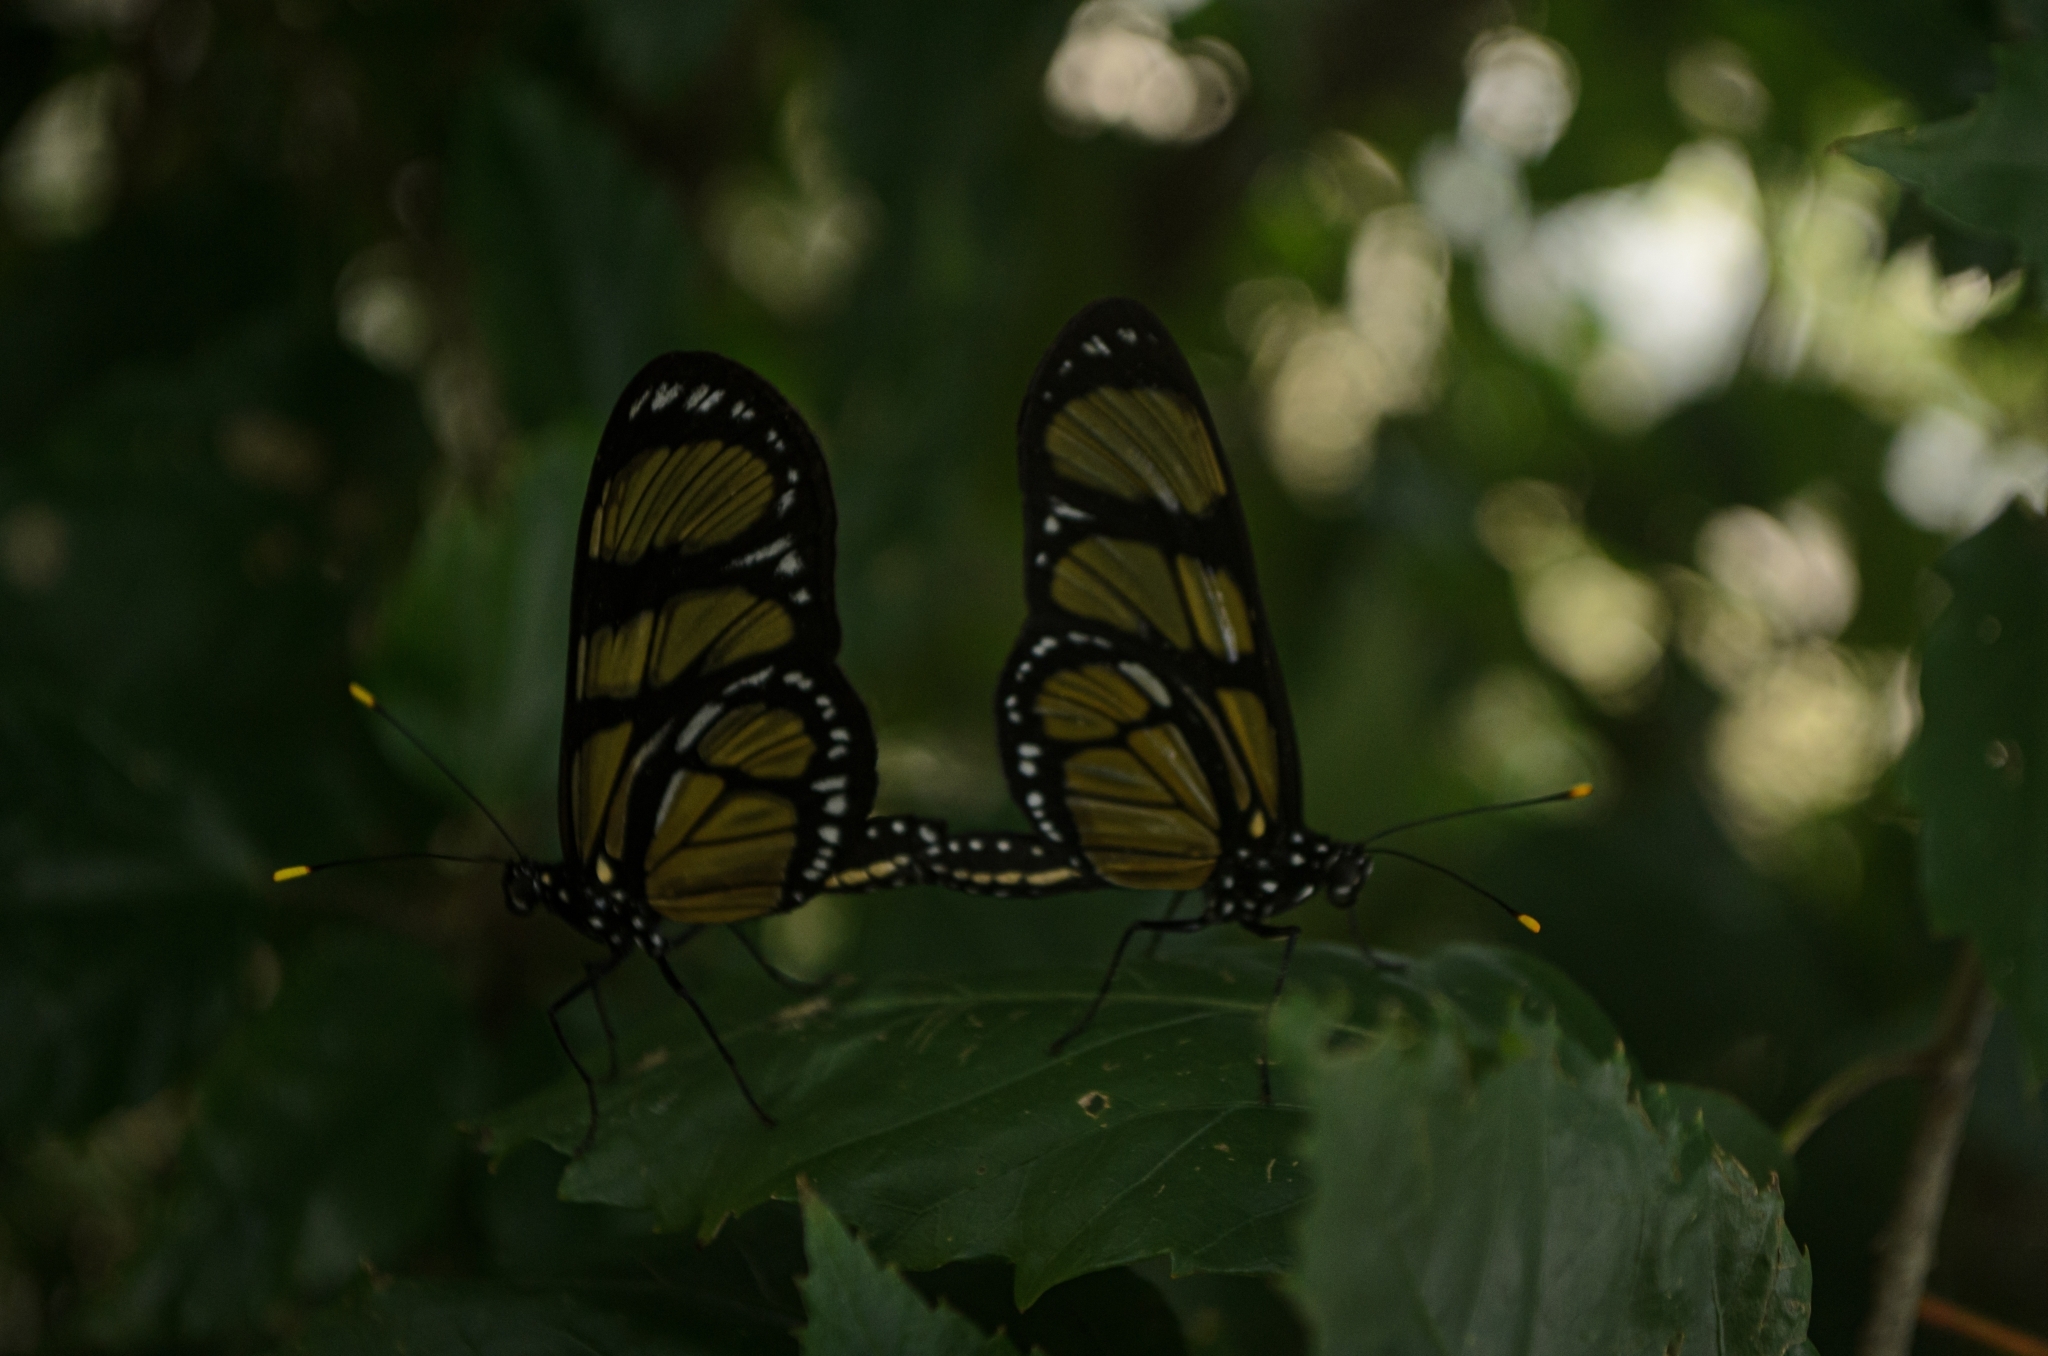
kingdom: Animalia
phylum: Arthropoda
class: Insecta
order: Lepidoptera
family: Nymphalidae
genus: Methona
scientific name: Methona themisto
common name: Themisto amberwing
